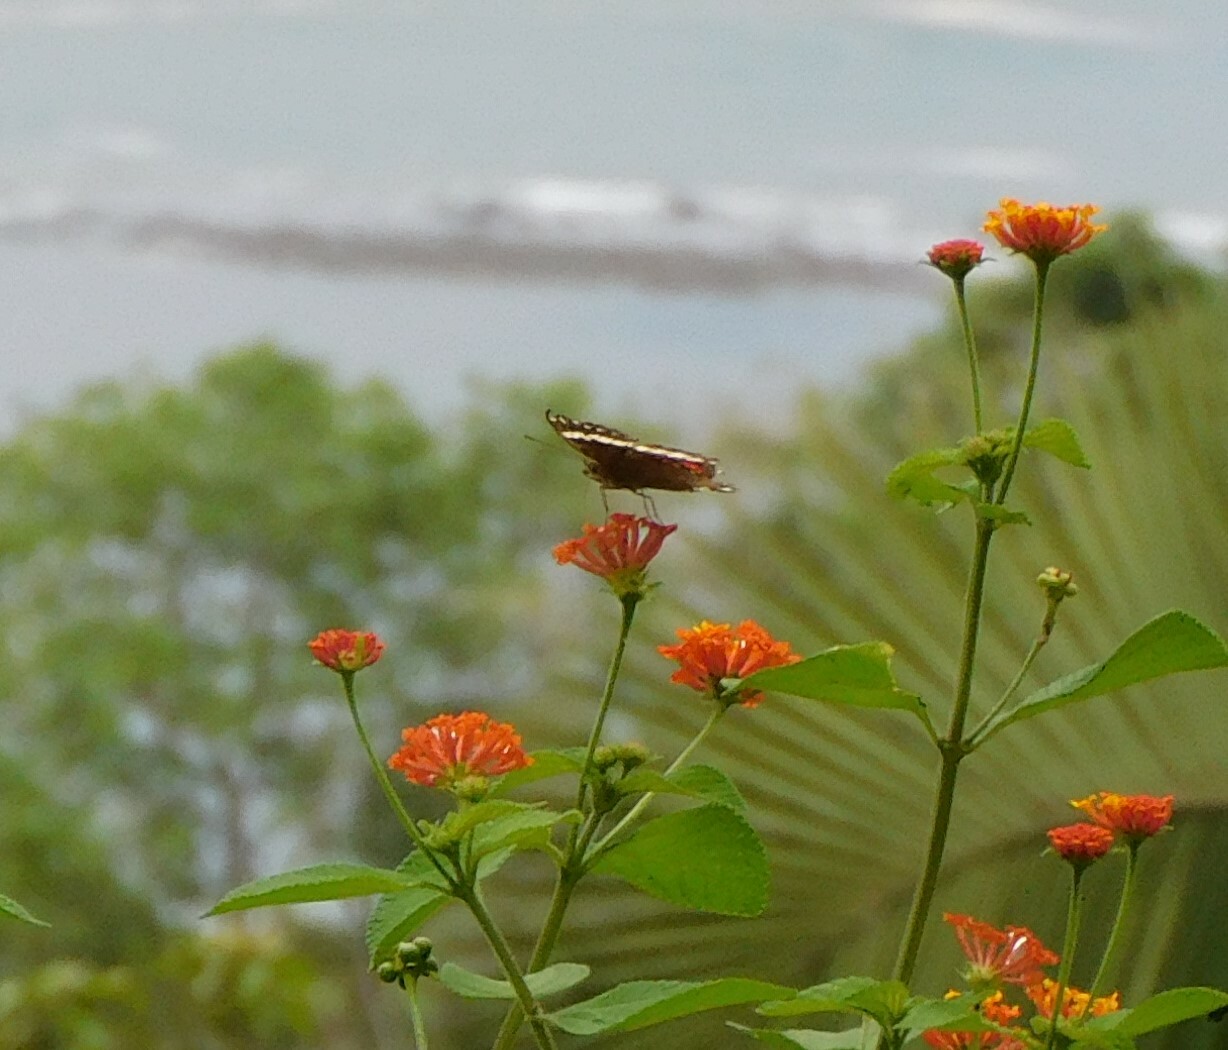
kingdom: Animalia
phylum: Arthropoda
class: Insecta
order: Lepidoptera
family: Nymphalidae
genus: Anartia
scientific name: Anartia fatima
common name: Banded peacock
